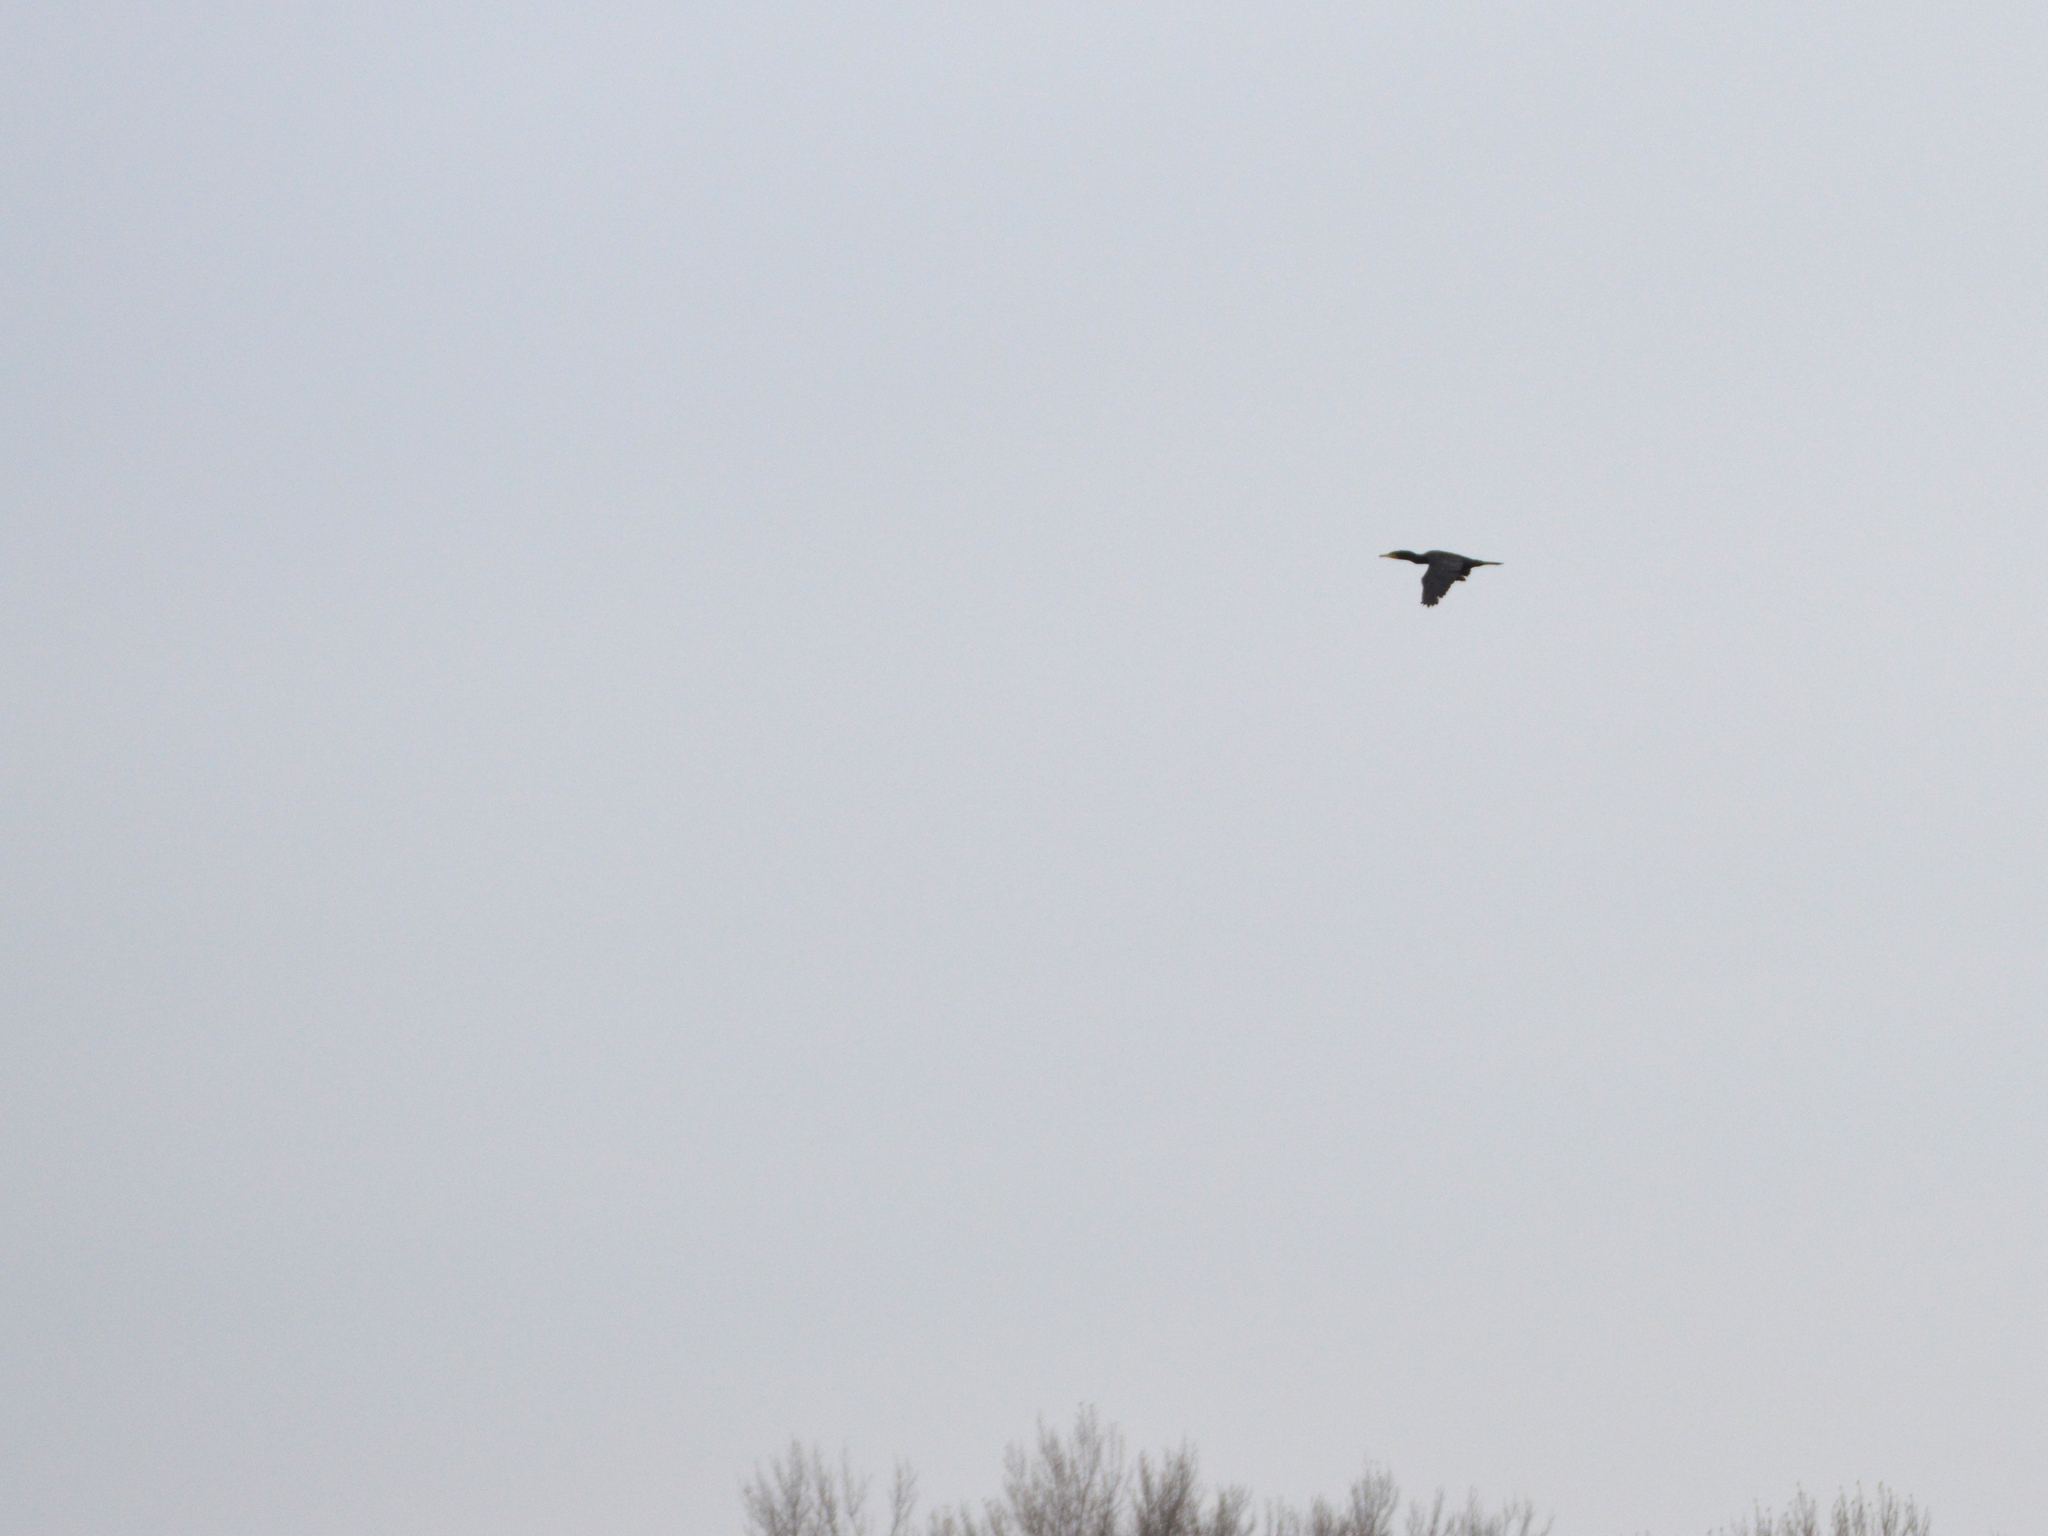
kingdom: Animalia
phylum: Chordata
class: Aves
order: Suliformes
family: Phalacrocoracidae
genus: Phalacrocorax
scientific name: Phalacrocorax carbo
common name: Great cormorant
